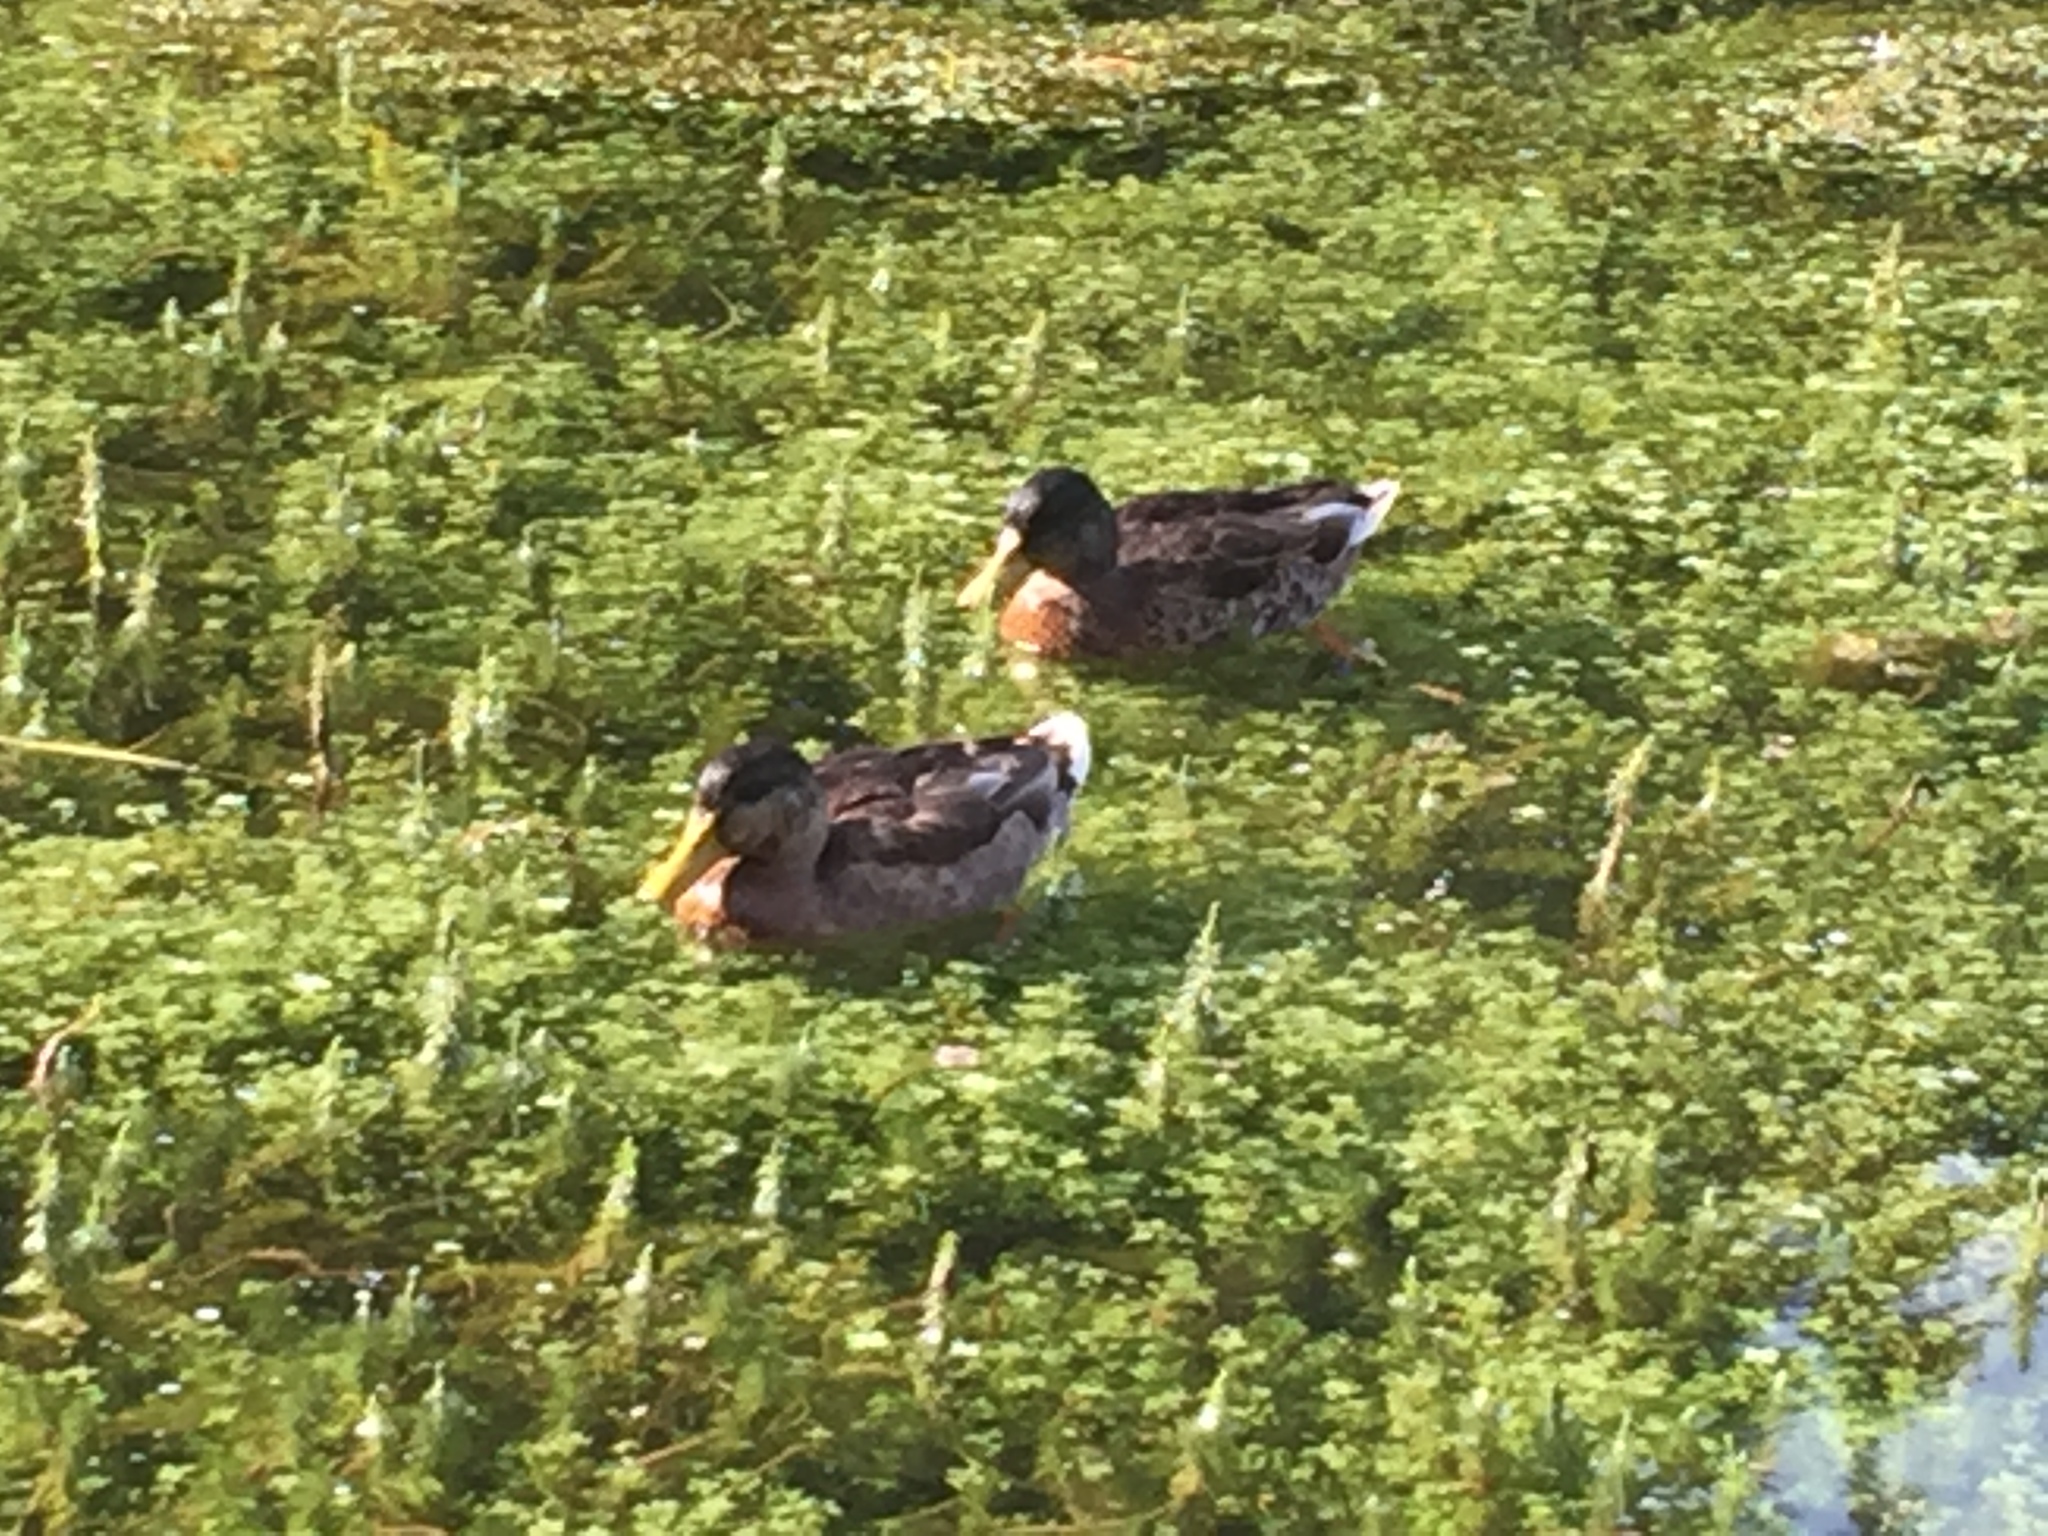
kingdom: Animalia
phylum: Chordata
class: Aves
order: Anseriformes
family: Anatidae
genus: Anas
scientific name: Anas platyrhynchos
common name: Mallard
